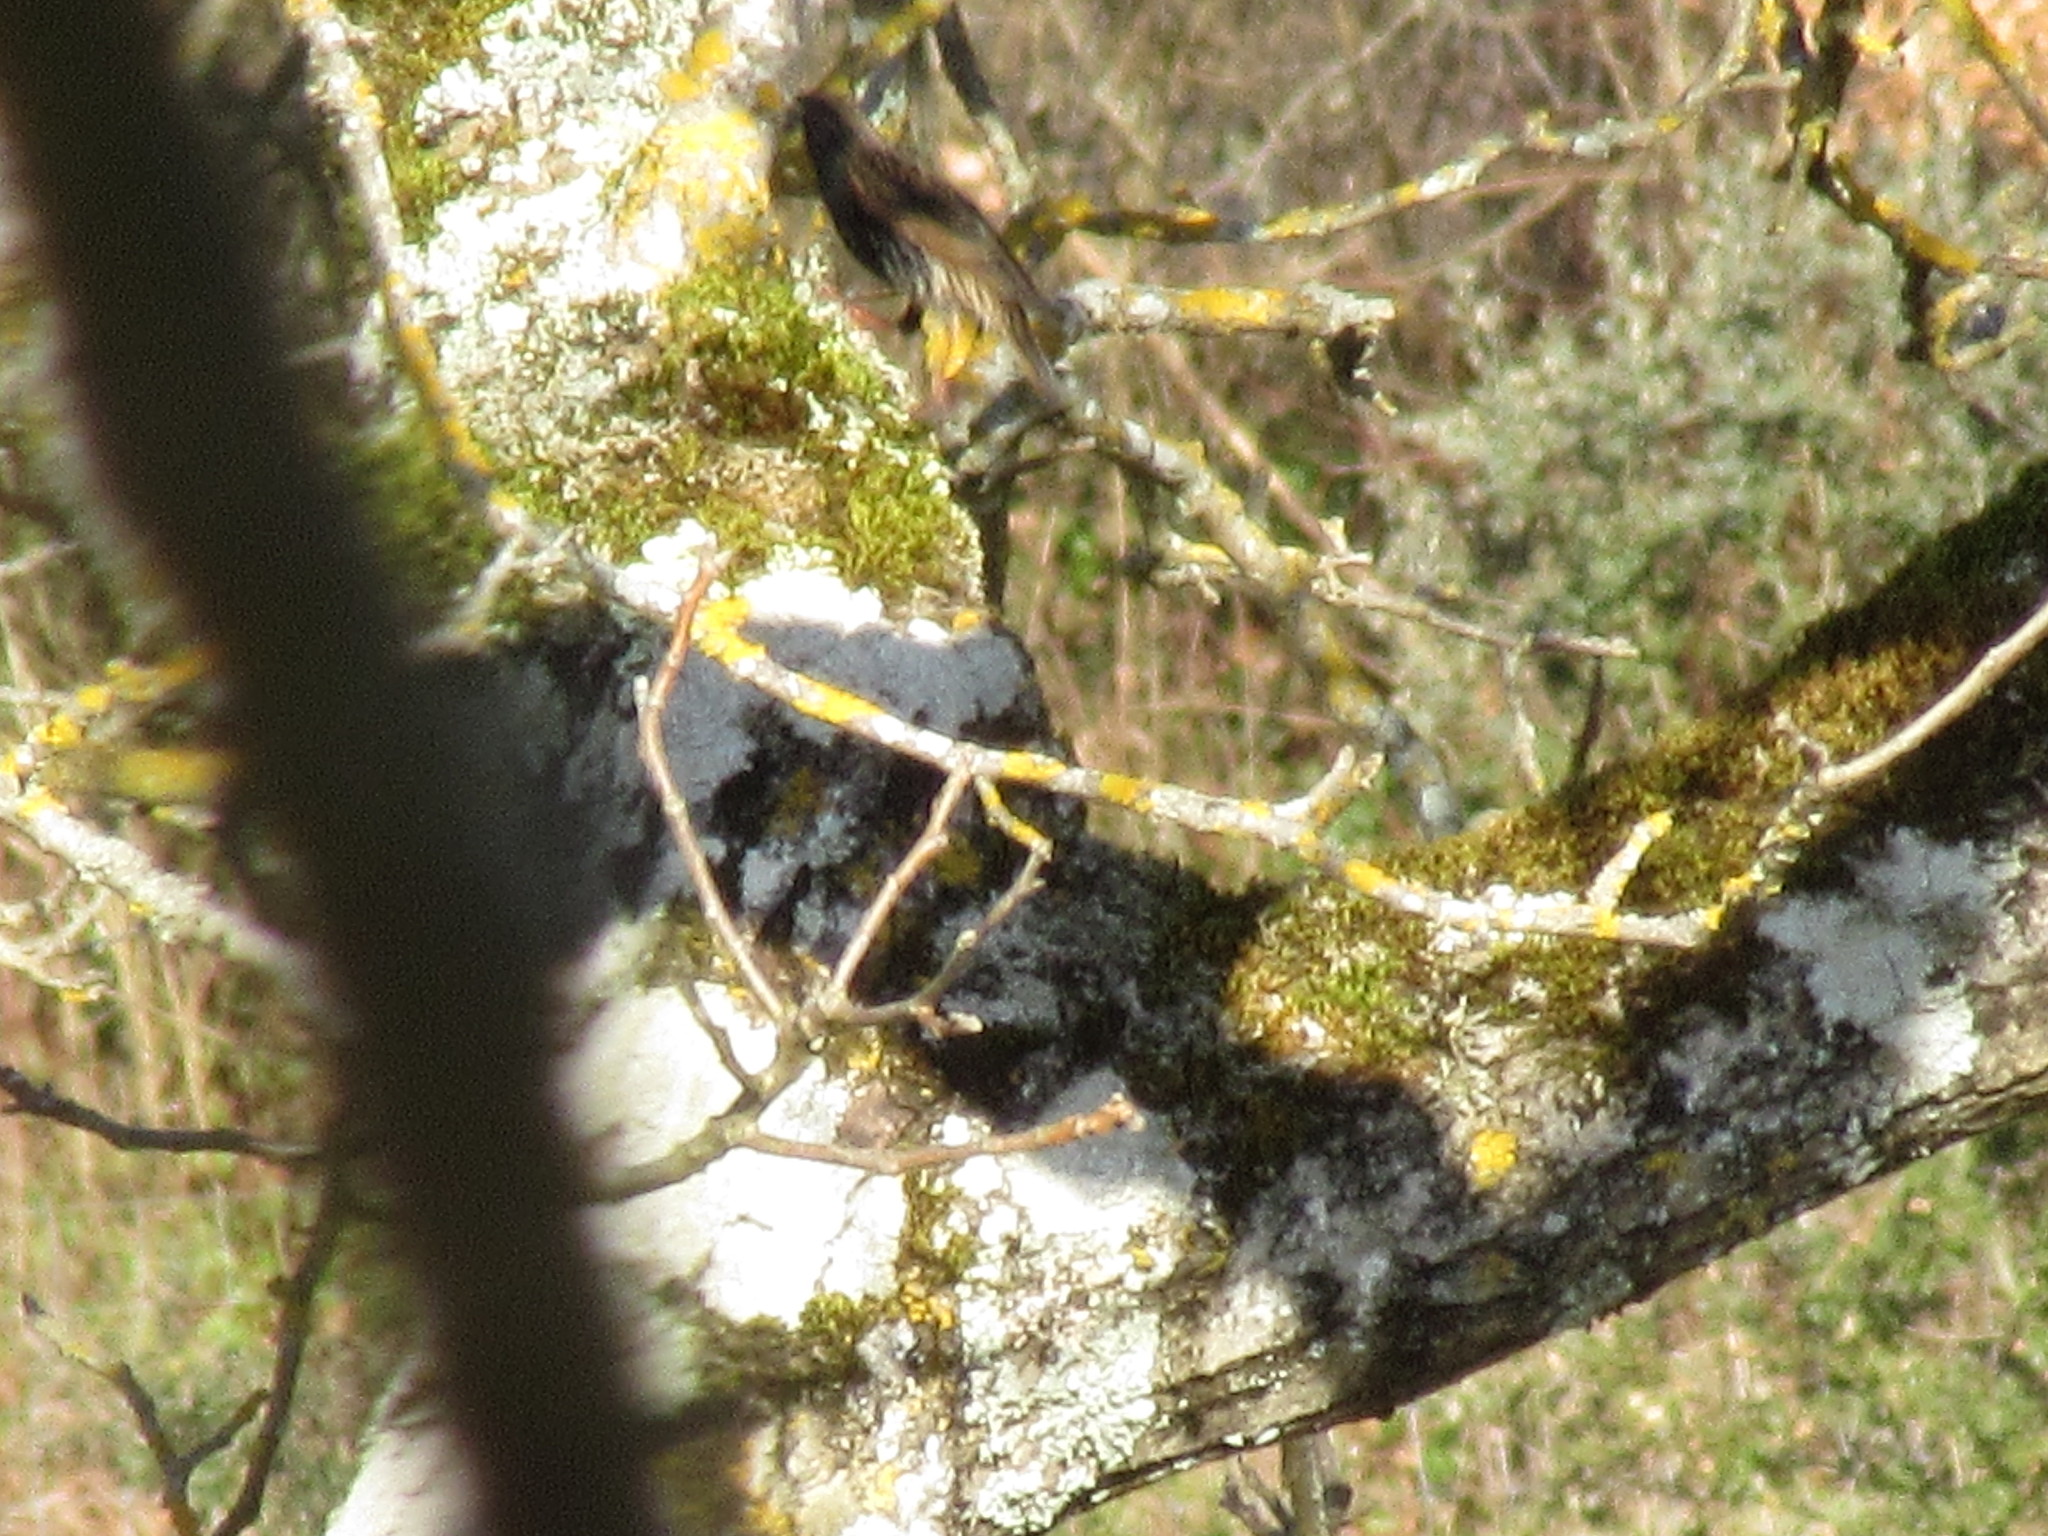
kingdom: Animalia
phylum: Chordata
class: Aves
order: Passeriformes
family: Sturnidae
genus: Sturnus
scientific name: Sturnus vulgaris
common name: Common starling
